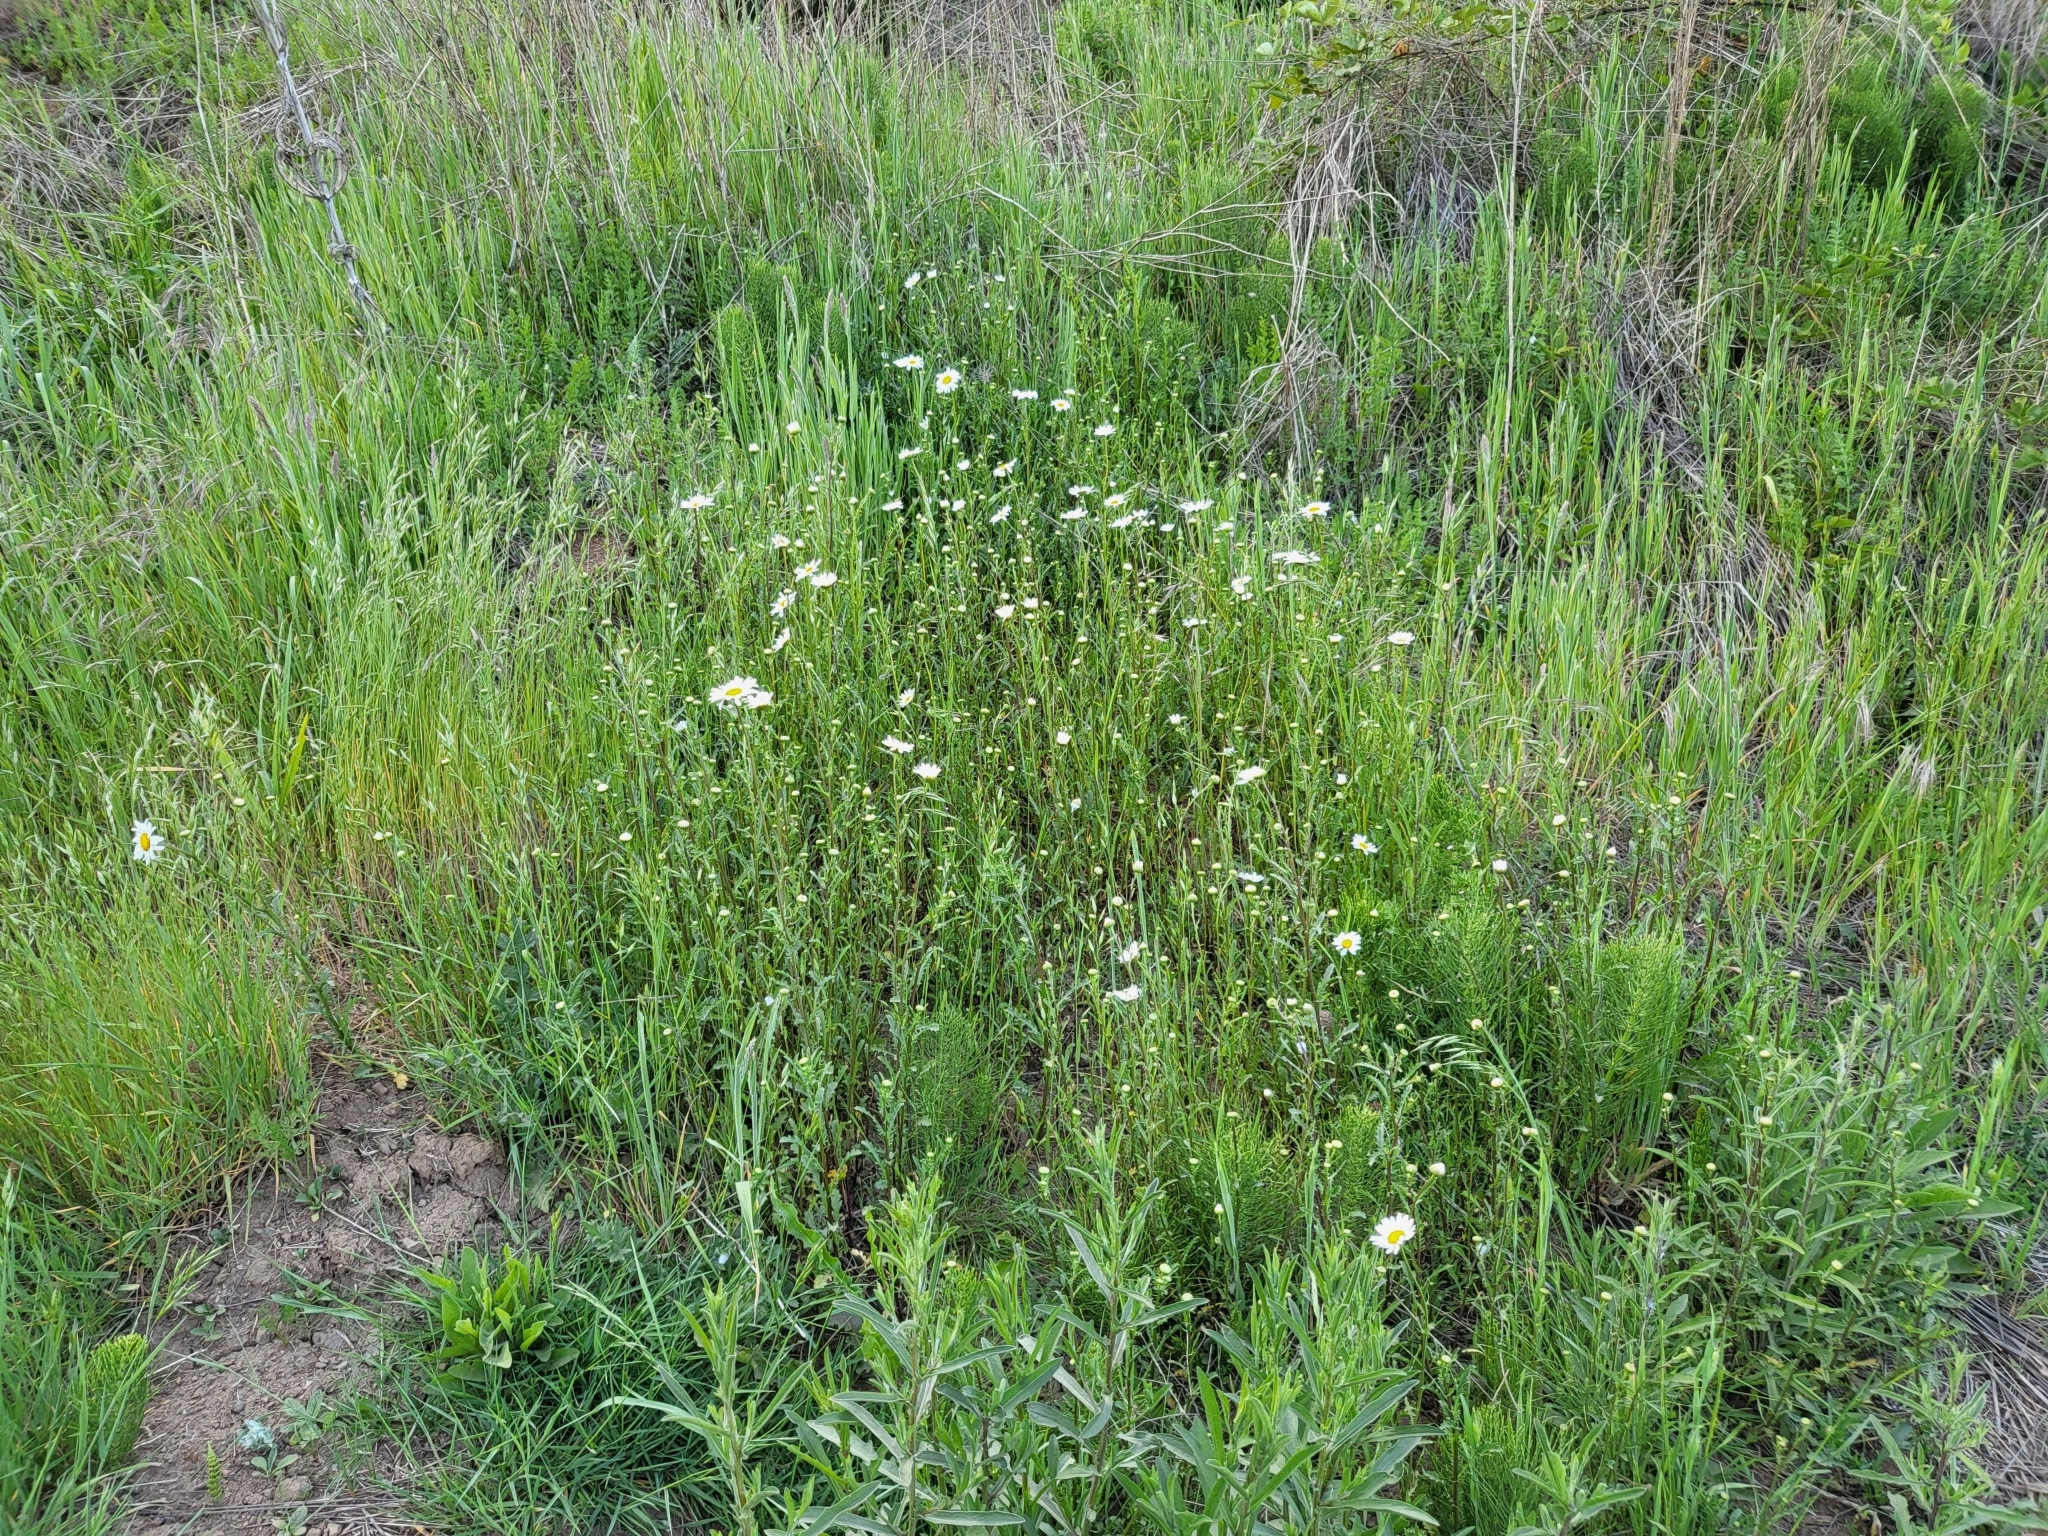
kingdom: Plantae
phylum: Tracheophyta
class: Magnoliopsida
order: Asterales
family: Asteraceae
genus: Leucanthemum
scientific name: Leucanthemum vulgare
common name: Oxeye daisy
